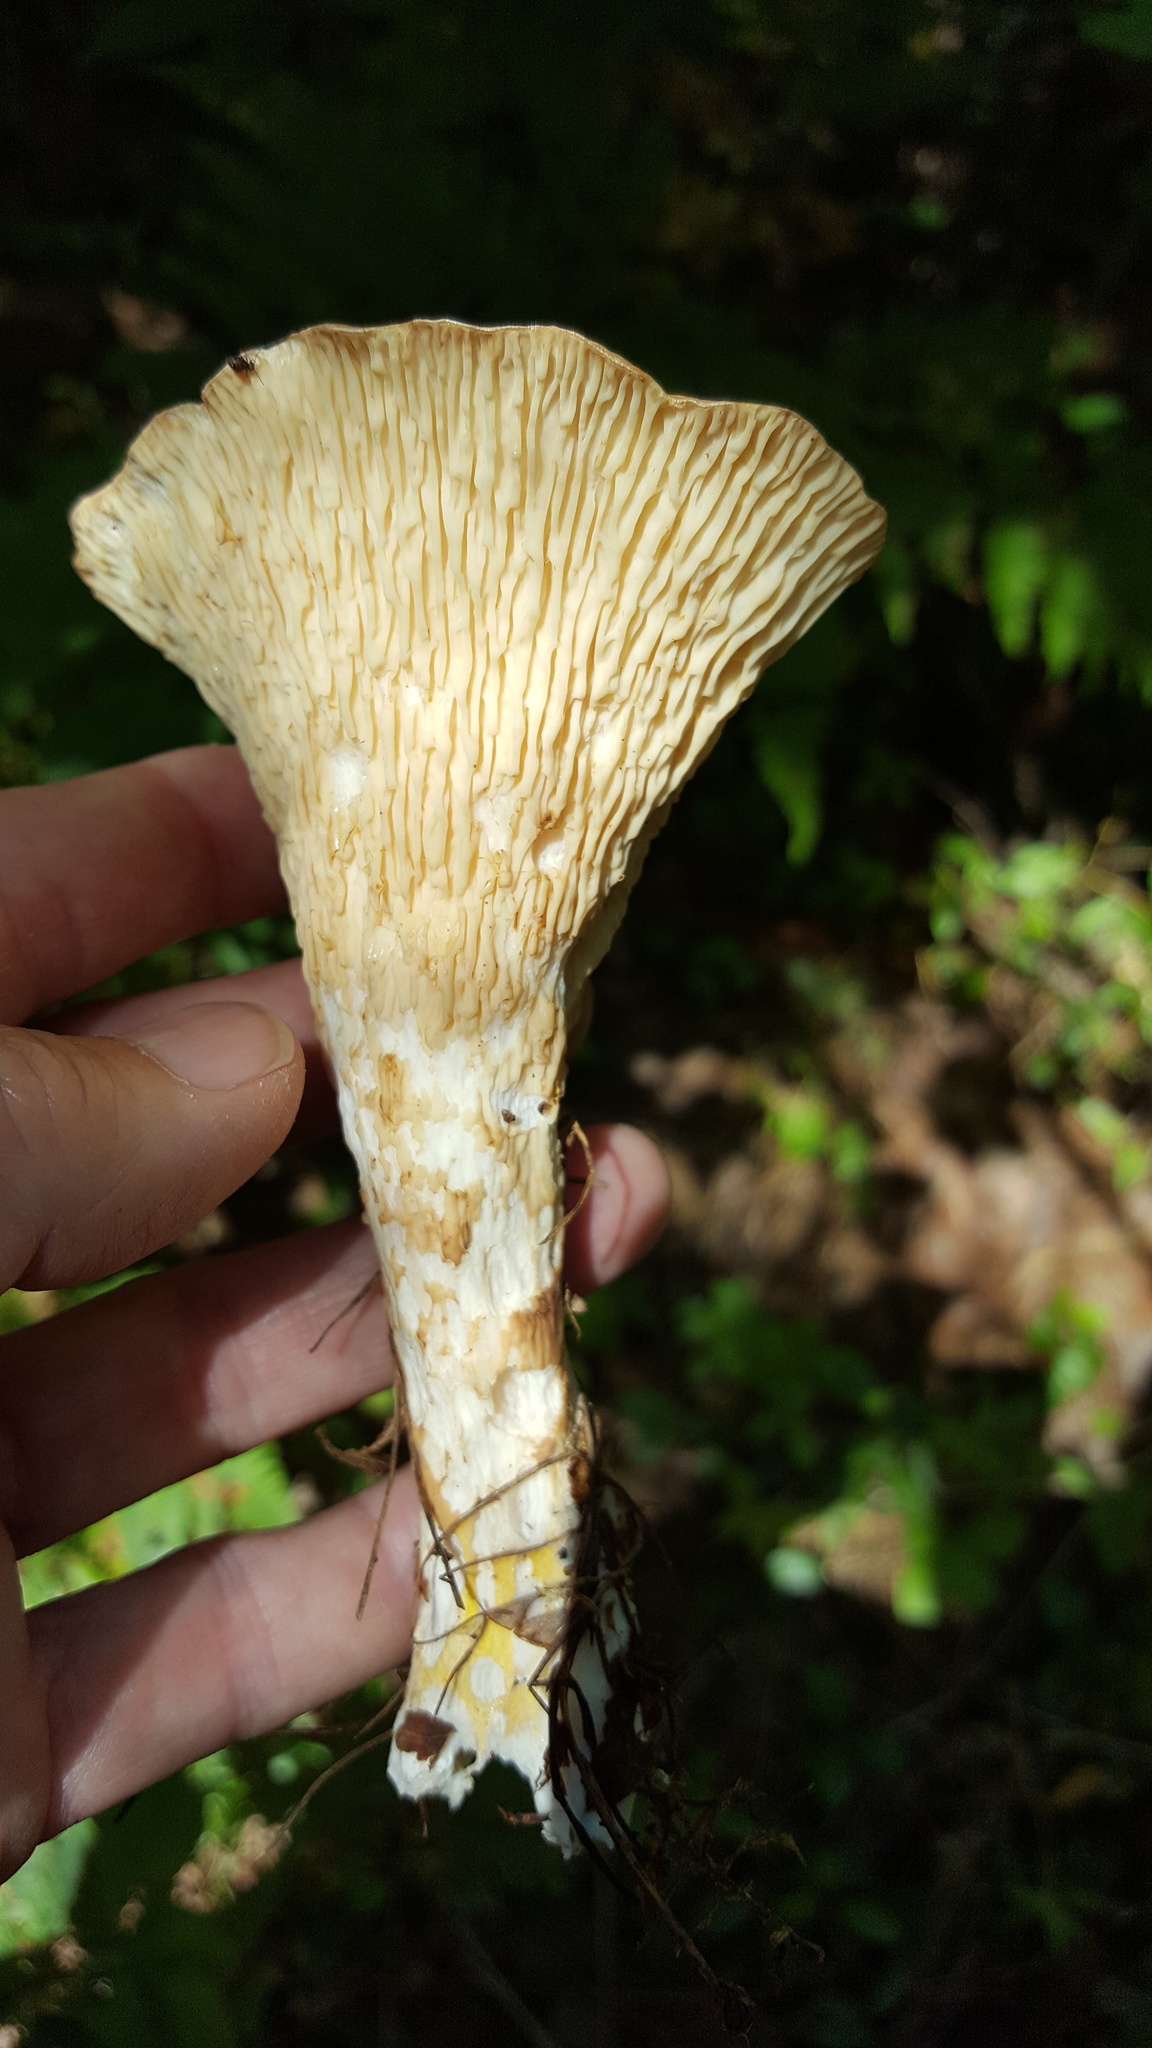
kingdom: Fungi
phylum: Basidiomycota
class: Agaricomycetes
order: Gomphales
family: Gomphaceae
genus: Turbinellus
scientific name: Turbinellus floccosus
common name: Scaly chanterelle
